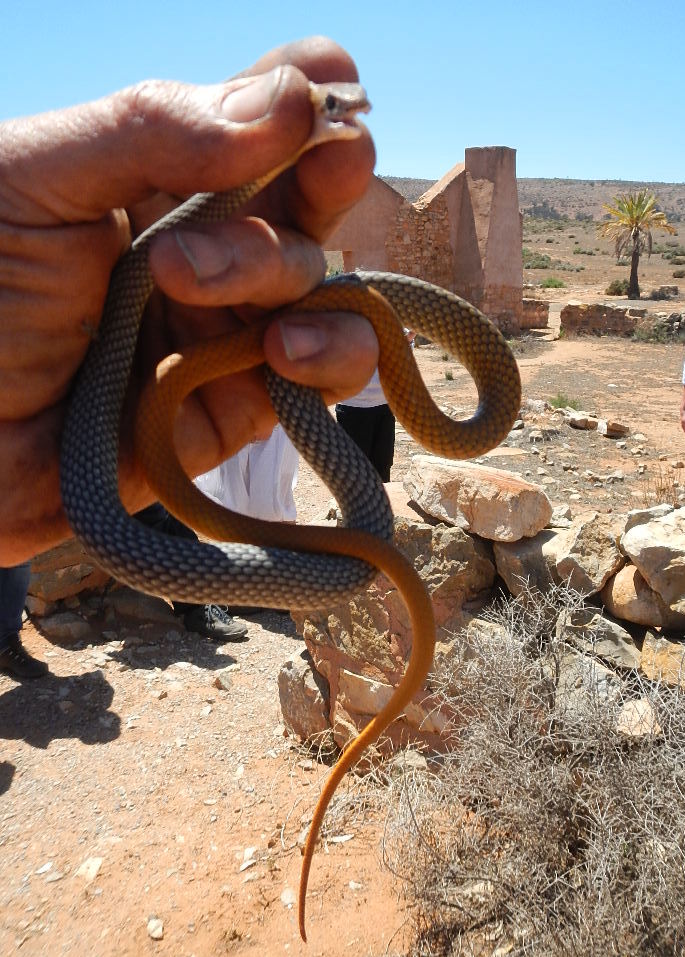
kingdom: Animalia
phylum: Chordata
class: Squamata
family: Elapidae
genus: Demansia
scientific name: Demansia
